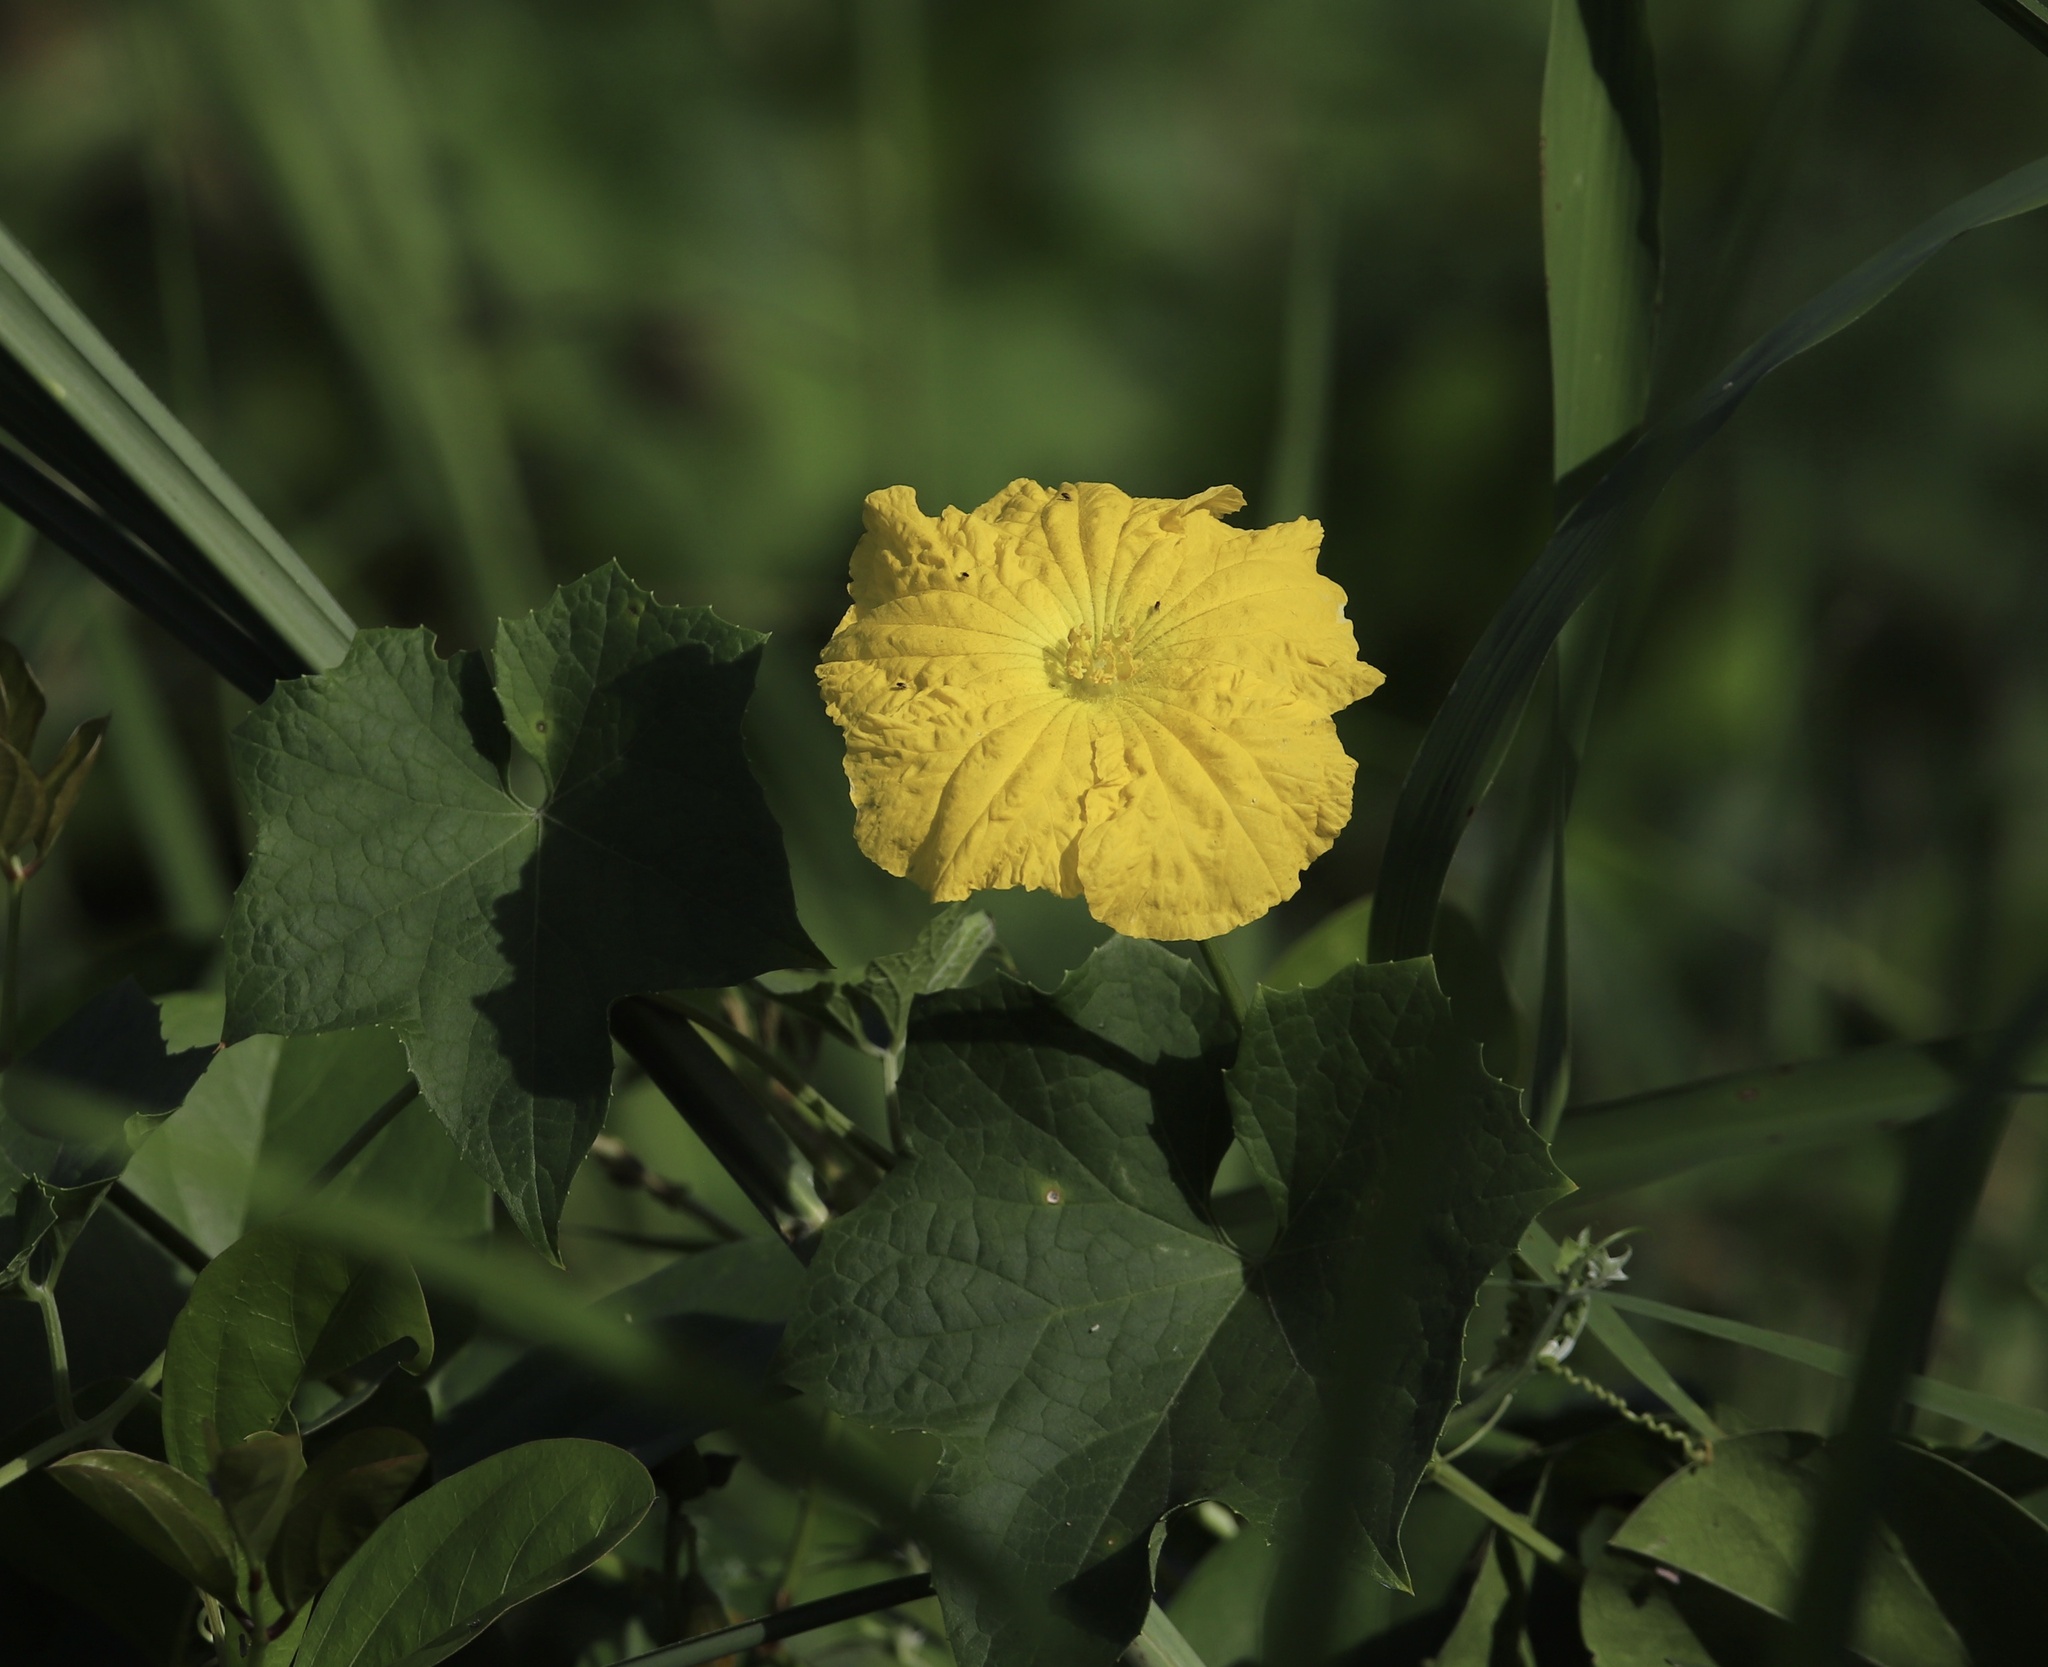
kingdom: Plantae
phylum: Tracheophyta
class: Magnoliopsida
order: Cucurbitales
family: Cucurbitaceae
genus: Luffa
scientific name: Luffa aegyptiaca
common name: Sponge gourd
